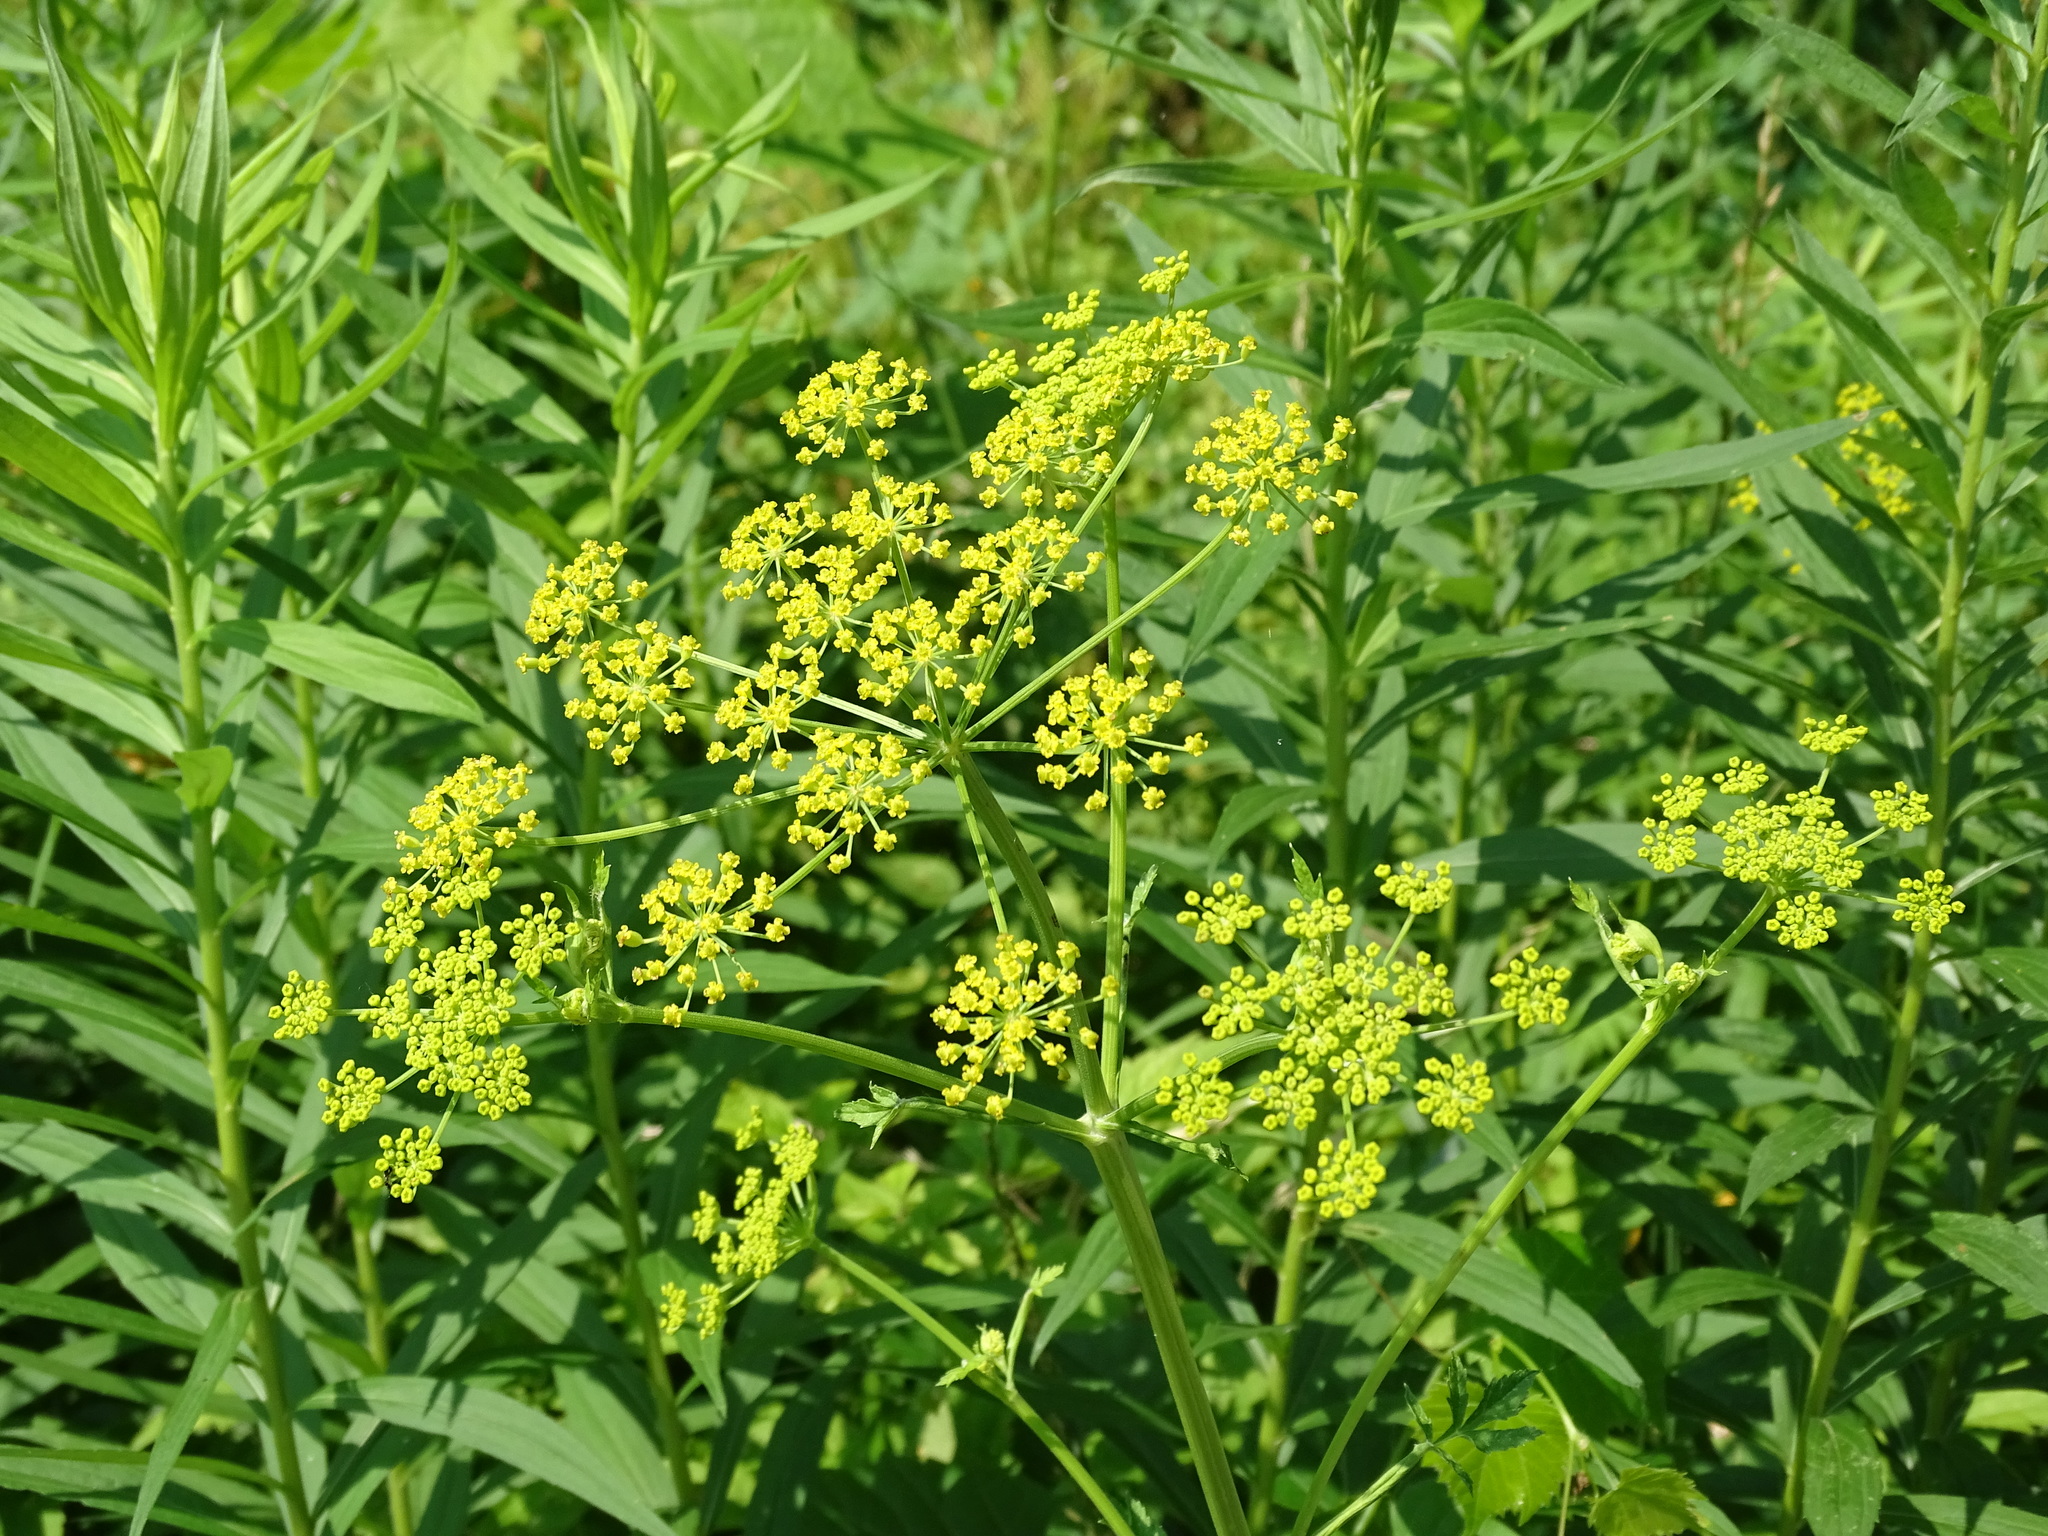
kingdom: Plantae
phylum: Tracheophyta
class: Magnoliopsida
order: Apiales
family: Apiaceae
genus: Pastinaca
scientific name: Pastinaca sativa
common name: Wild parsnip
